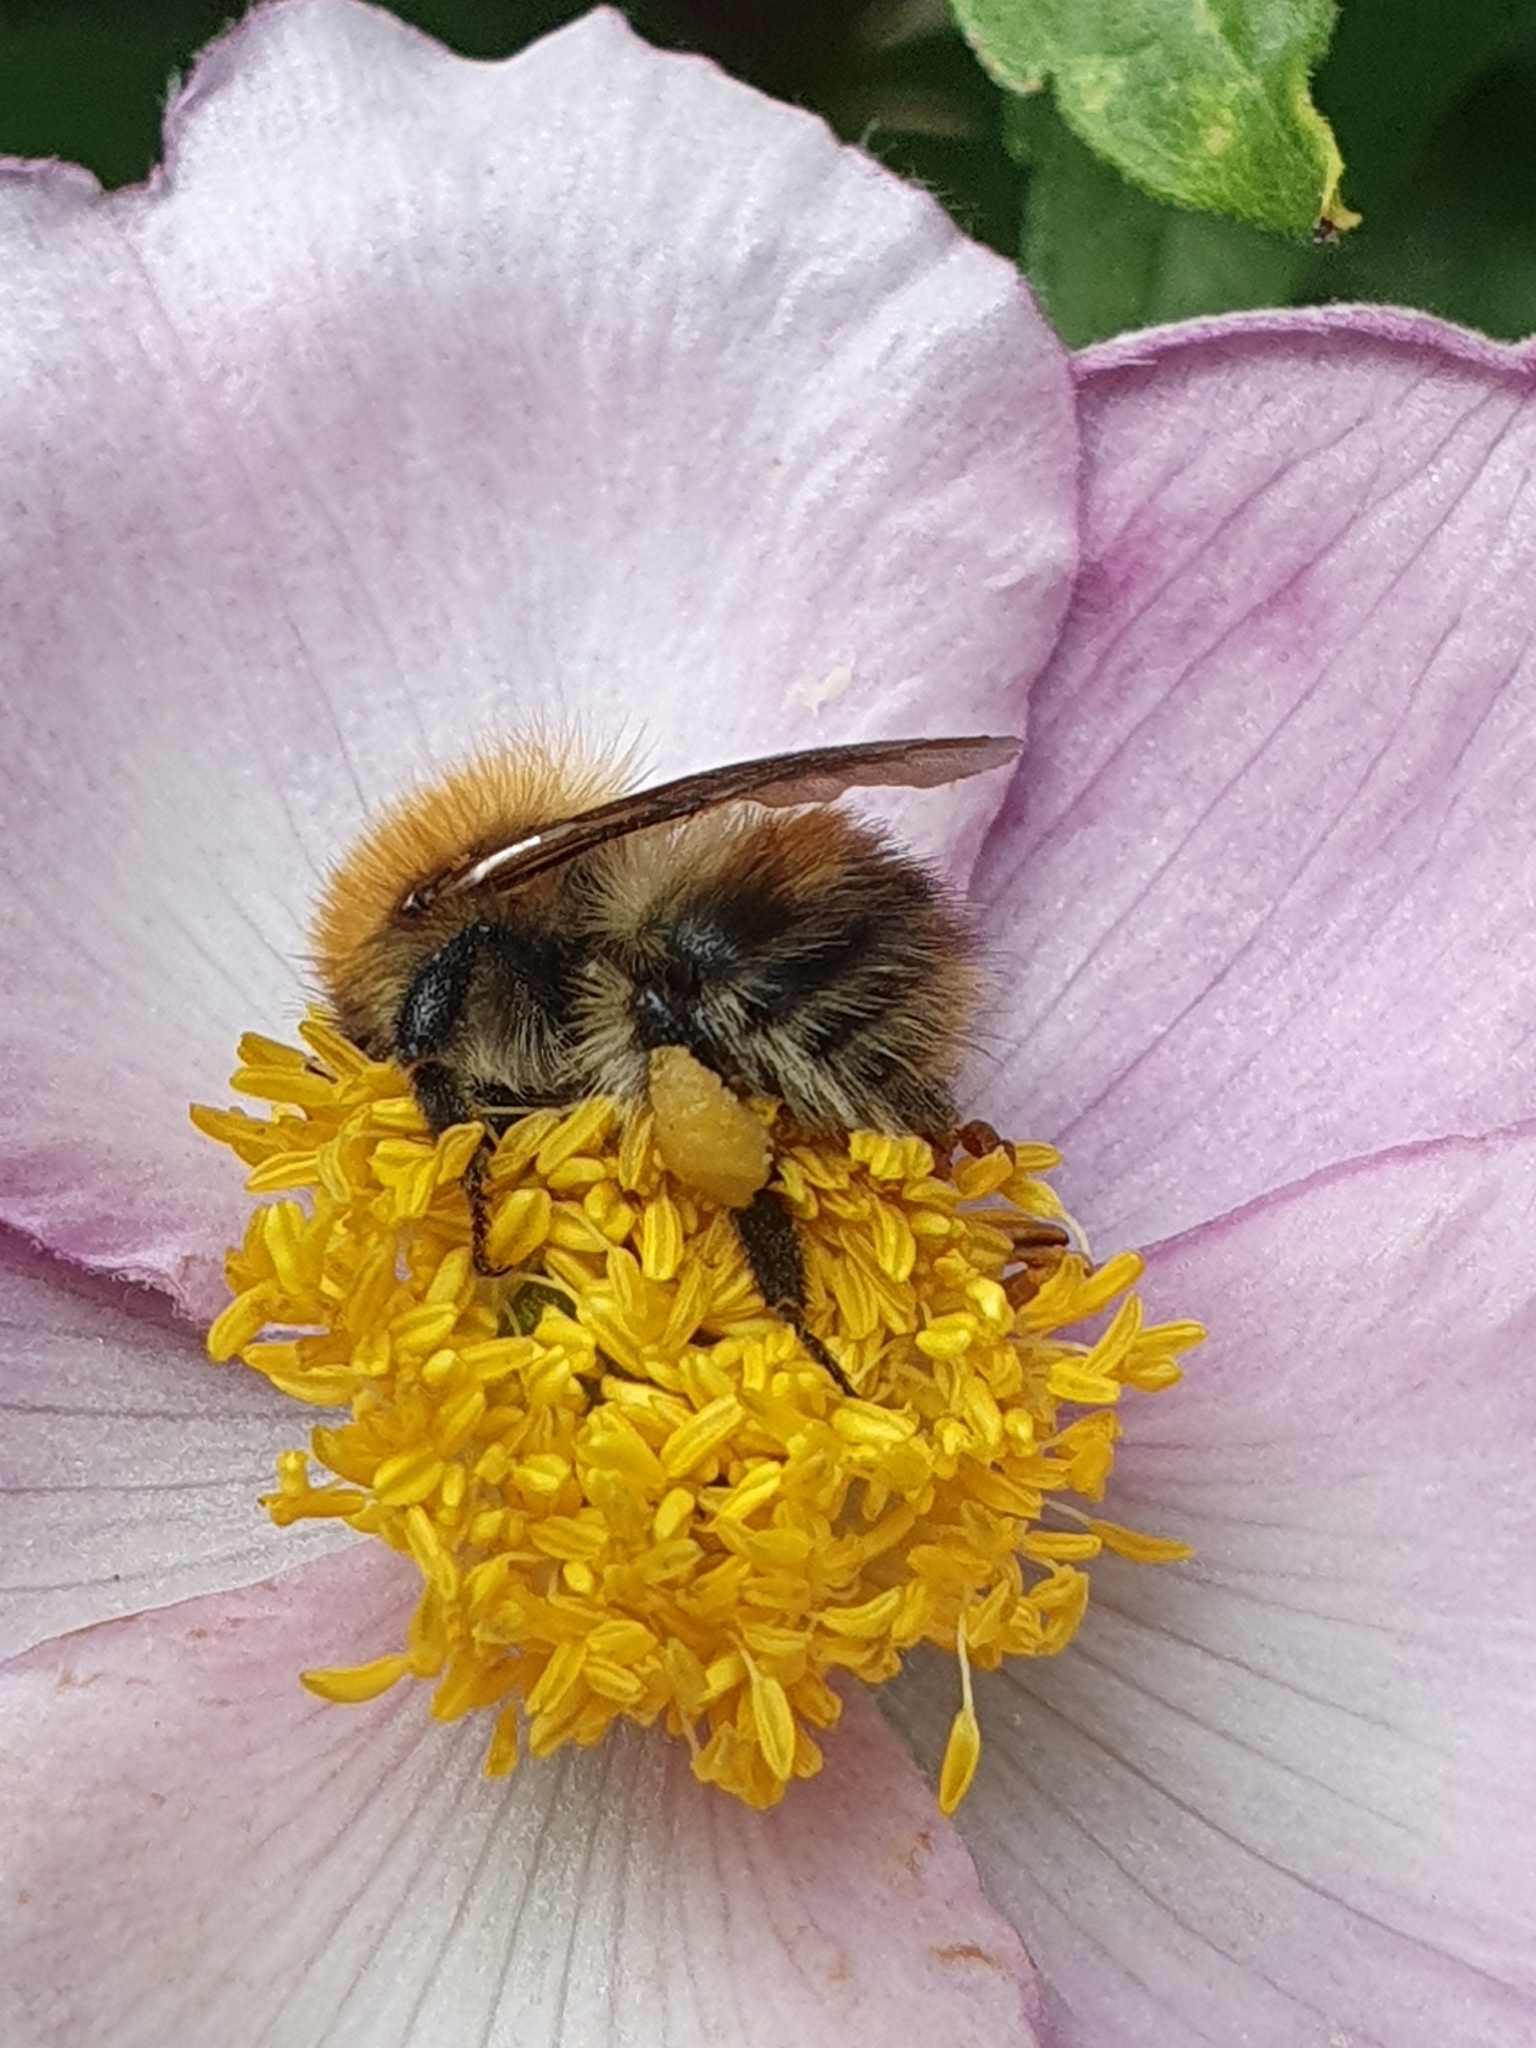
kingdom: Animalia
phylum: Arthropoda
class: Insecta
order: Hymenoptera
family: Apidae
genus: Bombus
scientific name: Bombus pascuorum
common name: Common carder bee
